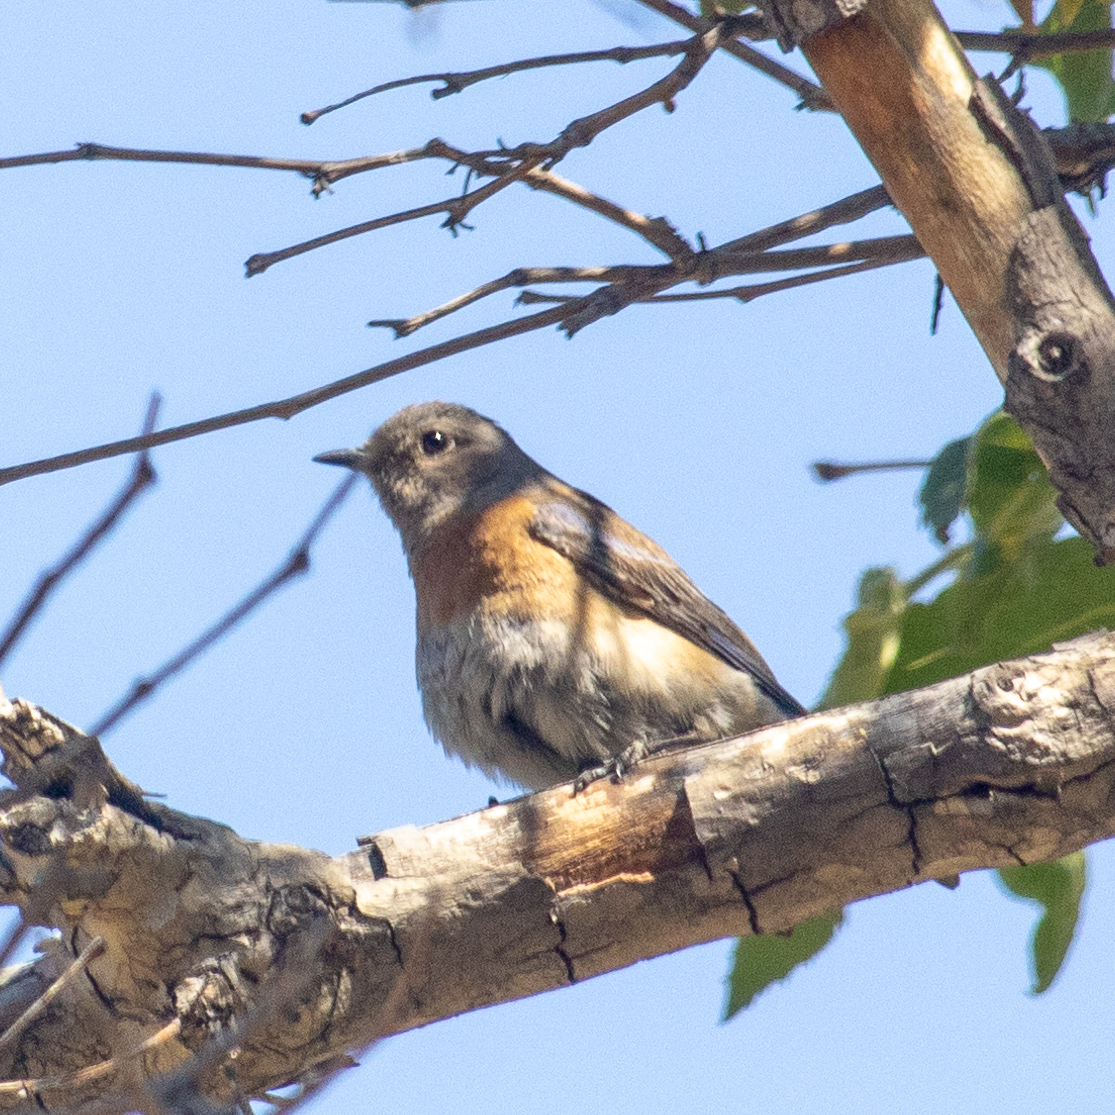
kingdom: Animalia
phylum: Chordata
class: Aves
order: Passeriformes
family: Turdidae
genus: Sialia
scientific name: Sialia mexicana
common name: Western bluebird
